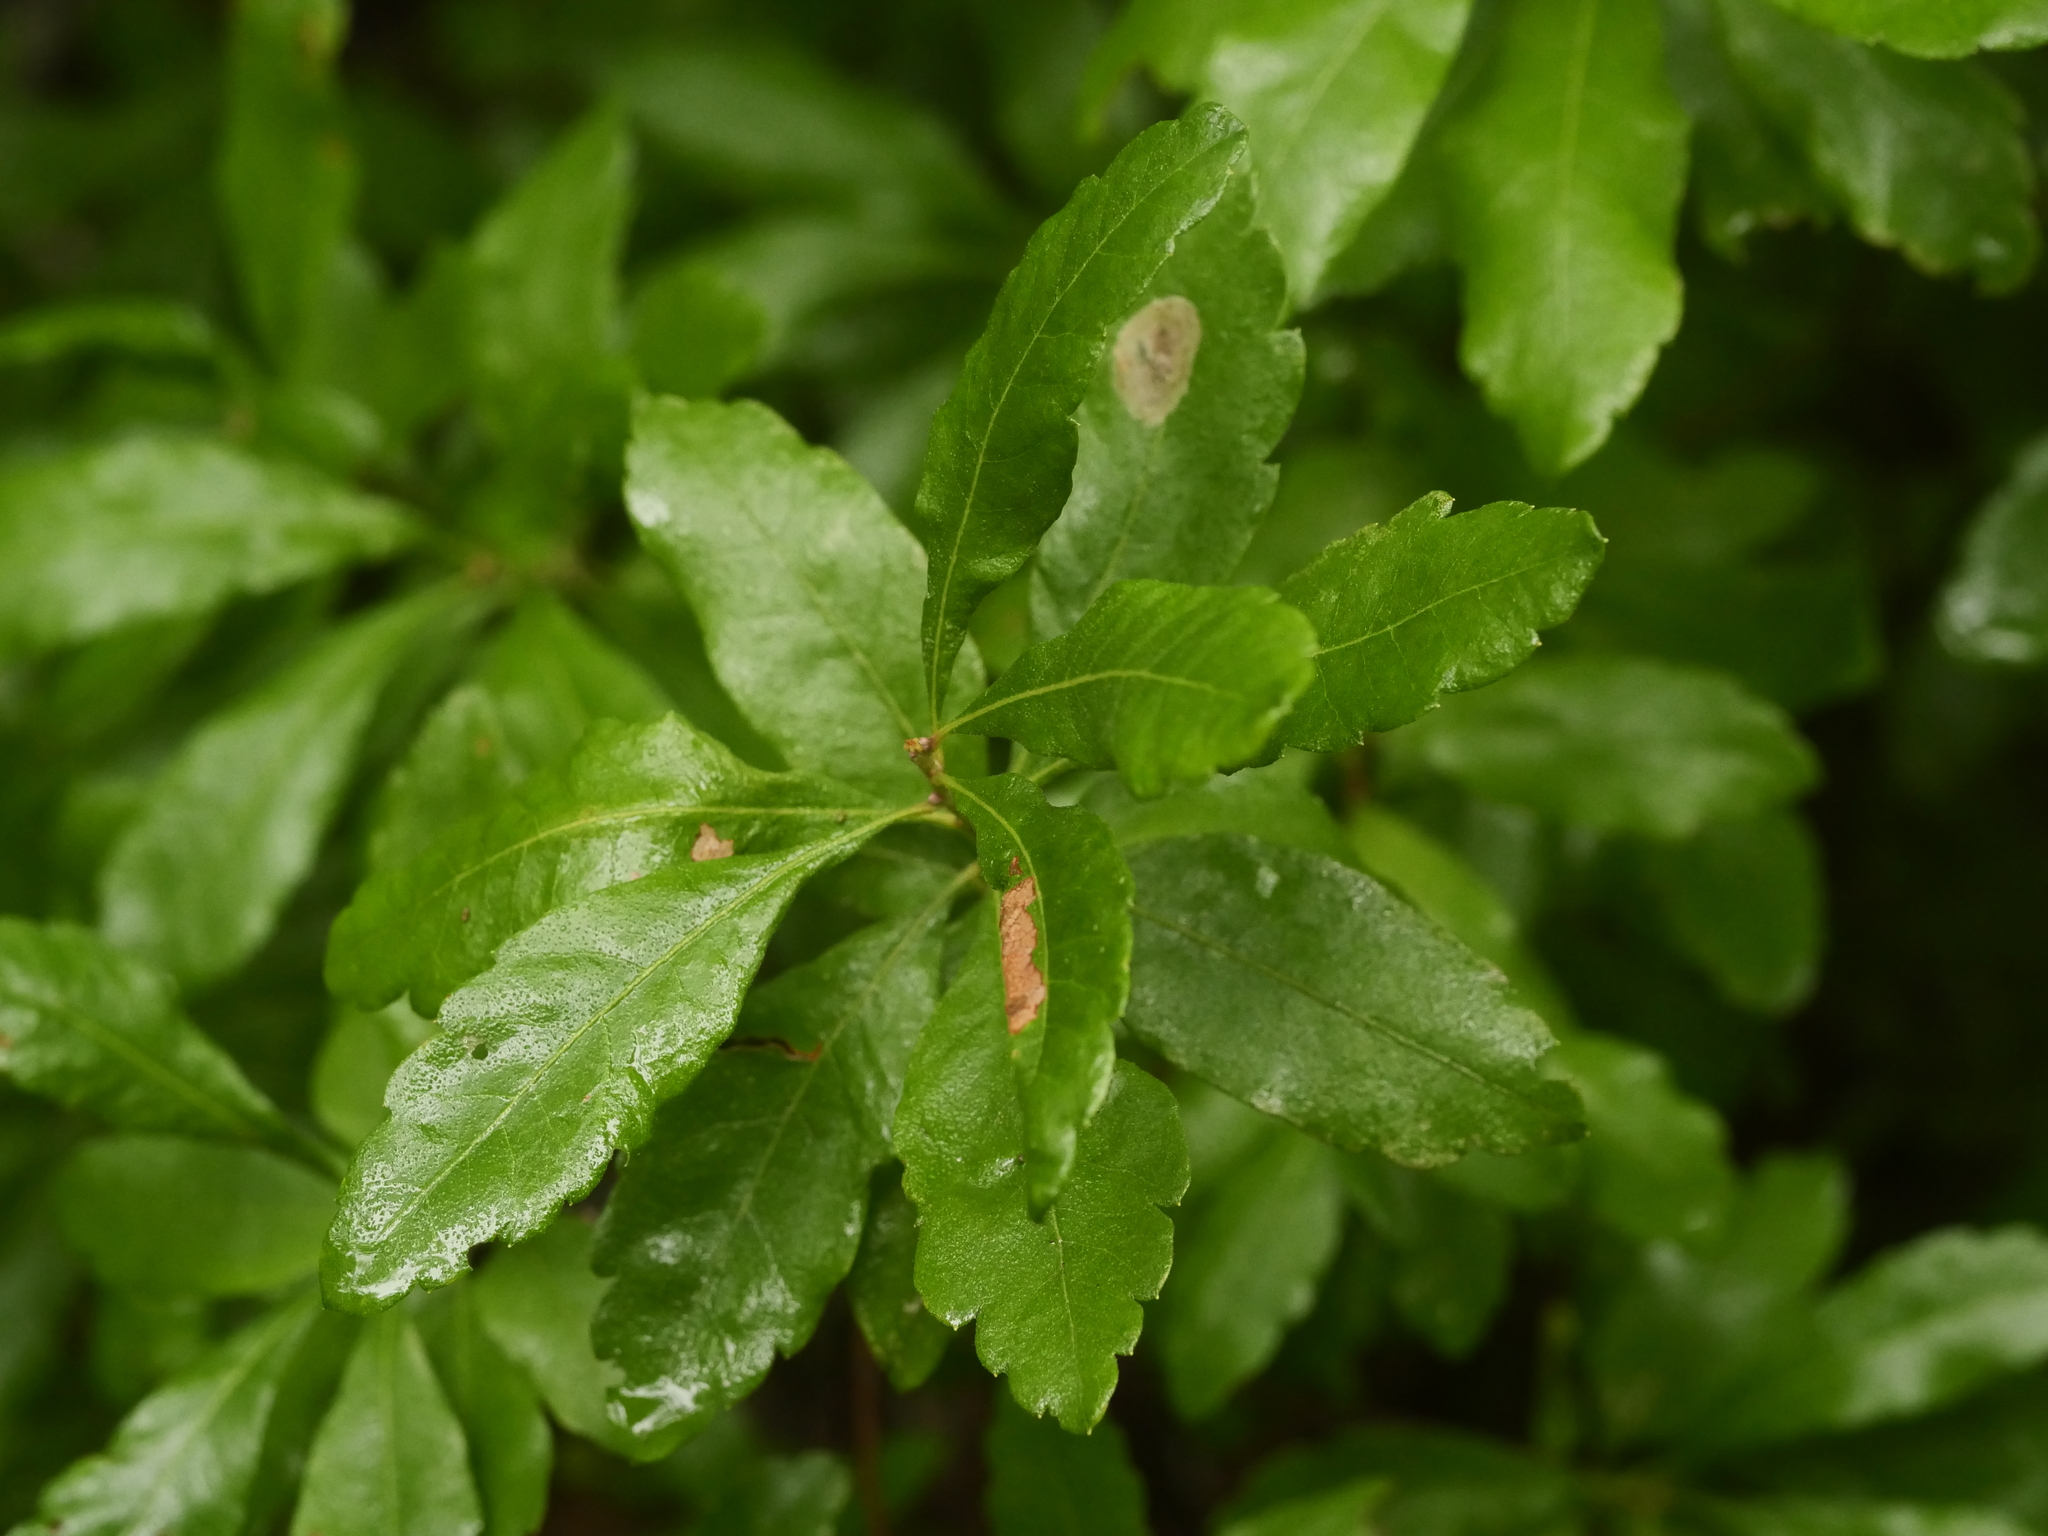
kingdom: Plantae
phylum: Tracheophyta
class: Magnoliopsida
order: Fagales
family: Myricaceae
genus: Morella
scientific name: Morella pensylvanica
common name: Northern bayberry
